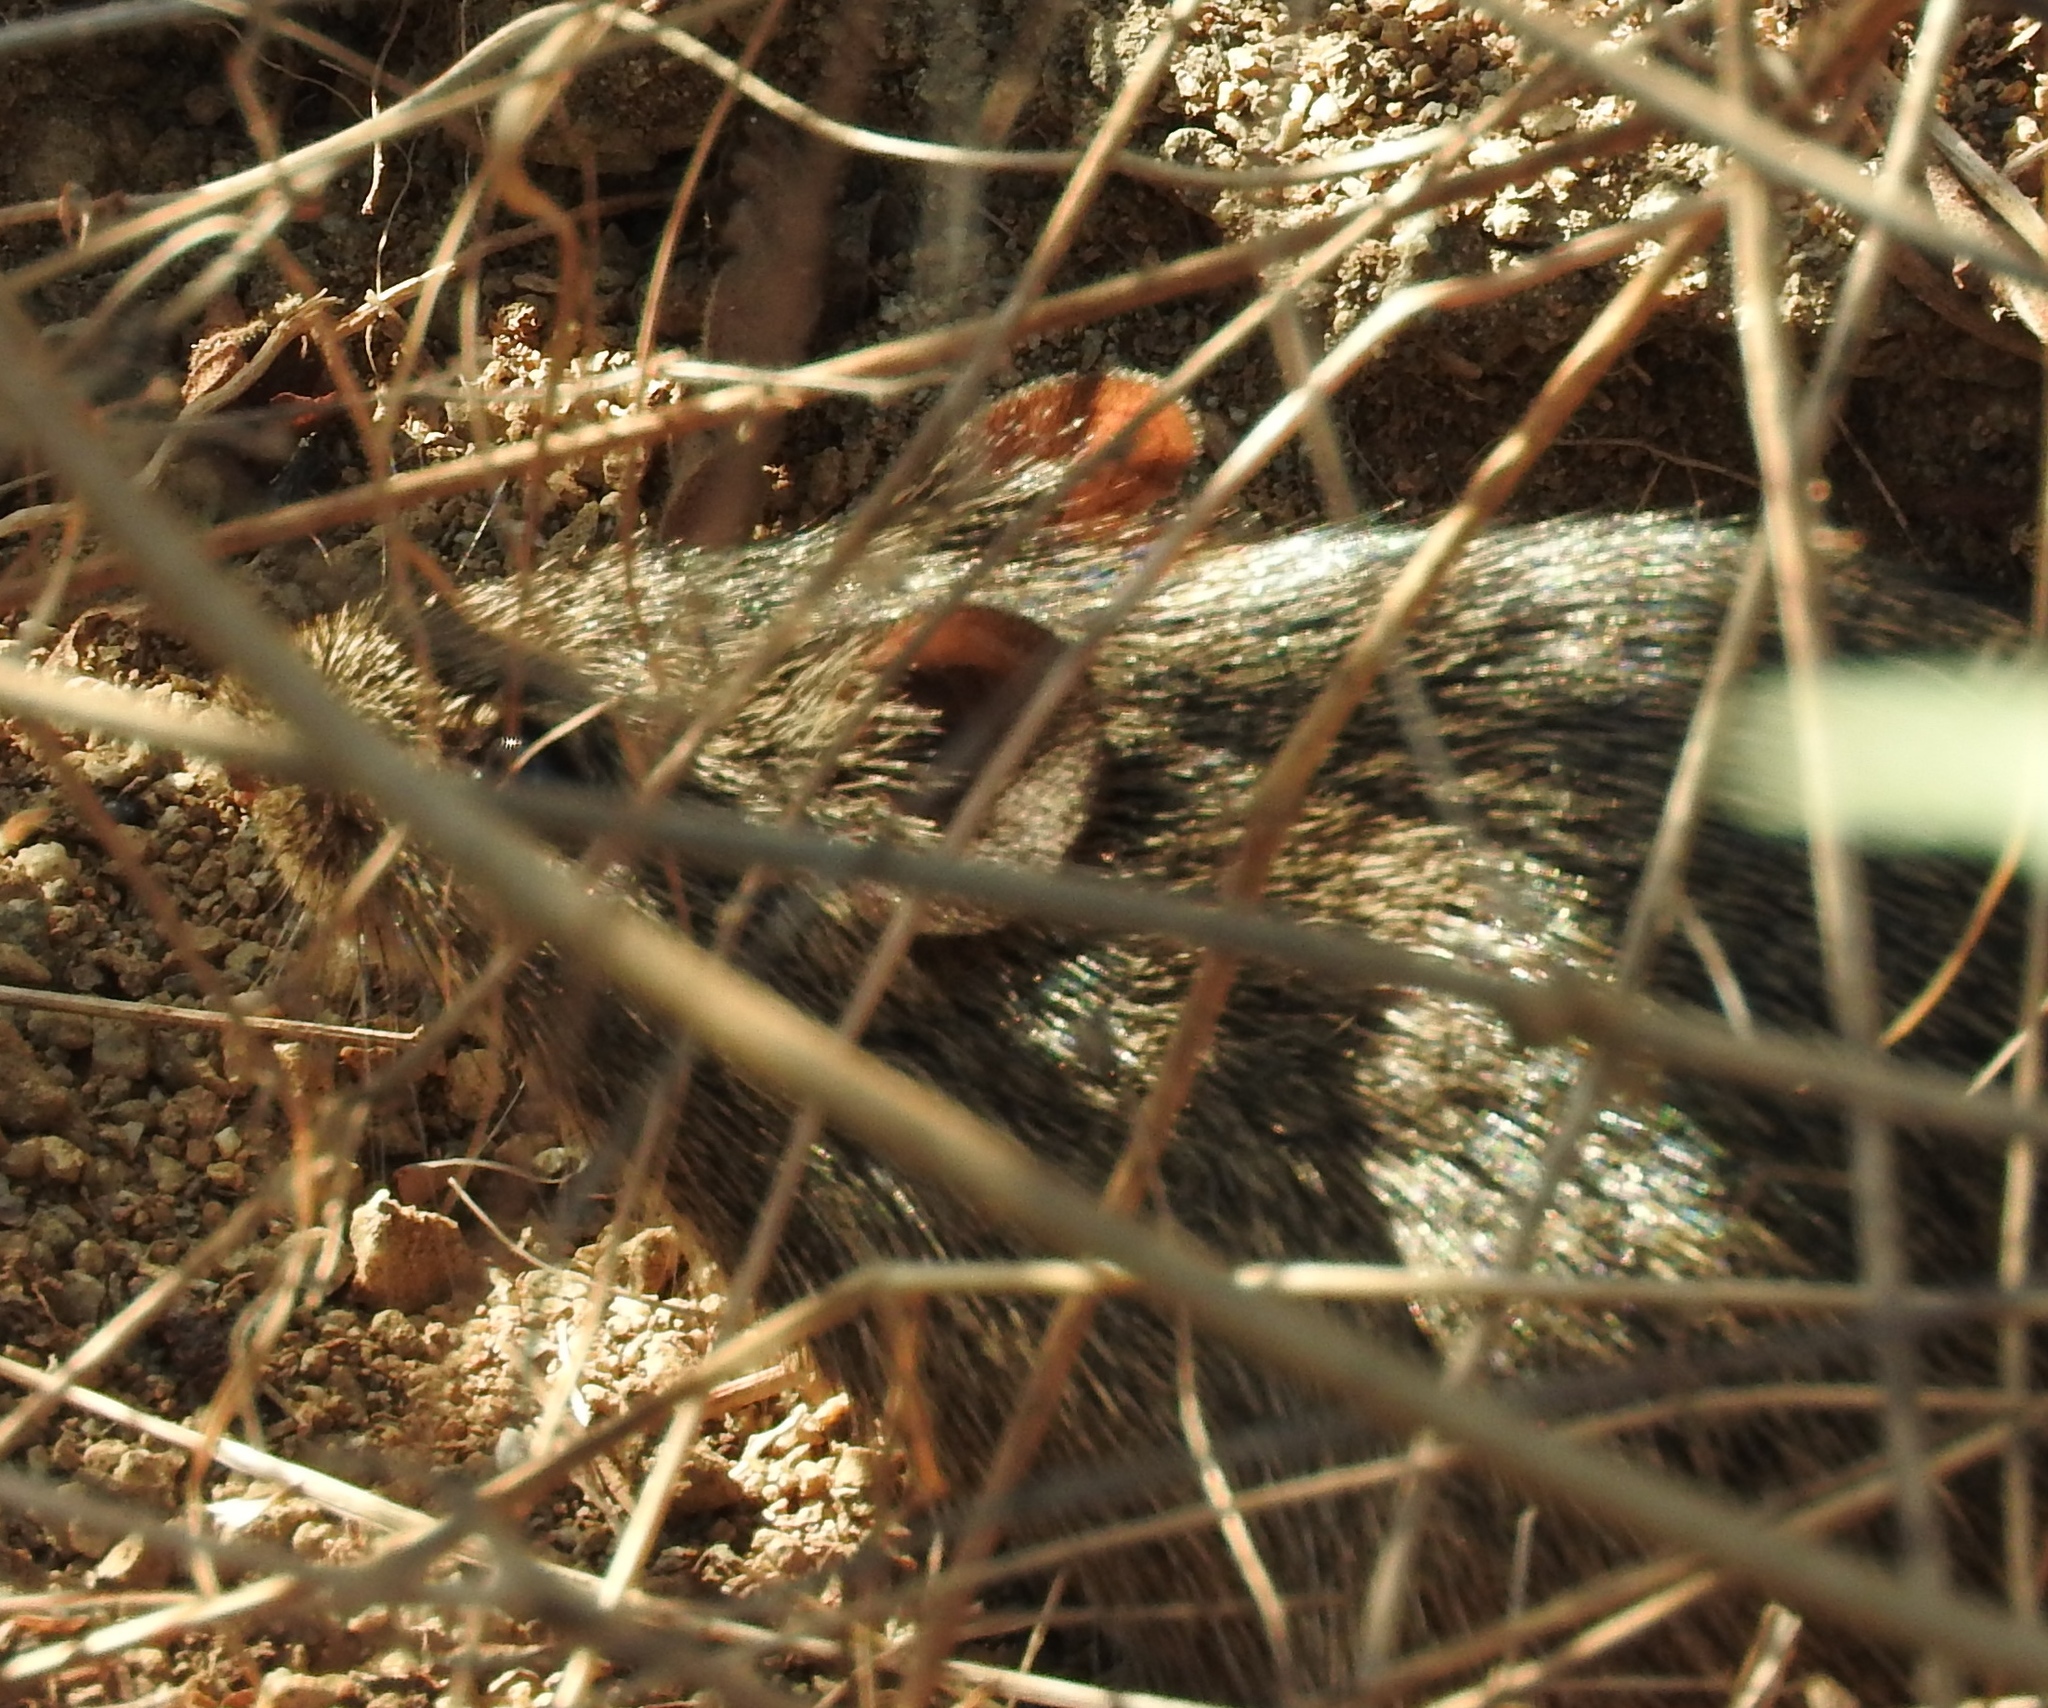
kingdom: Animalia
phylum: Chordata
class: Mammalia
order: Rodentia
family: Cricetidae
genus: Sigmodon
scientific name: Sigmodon arizonae
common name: Arizona cotton rat
